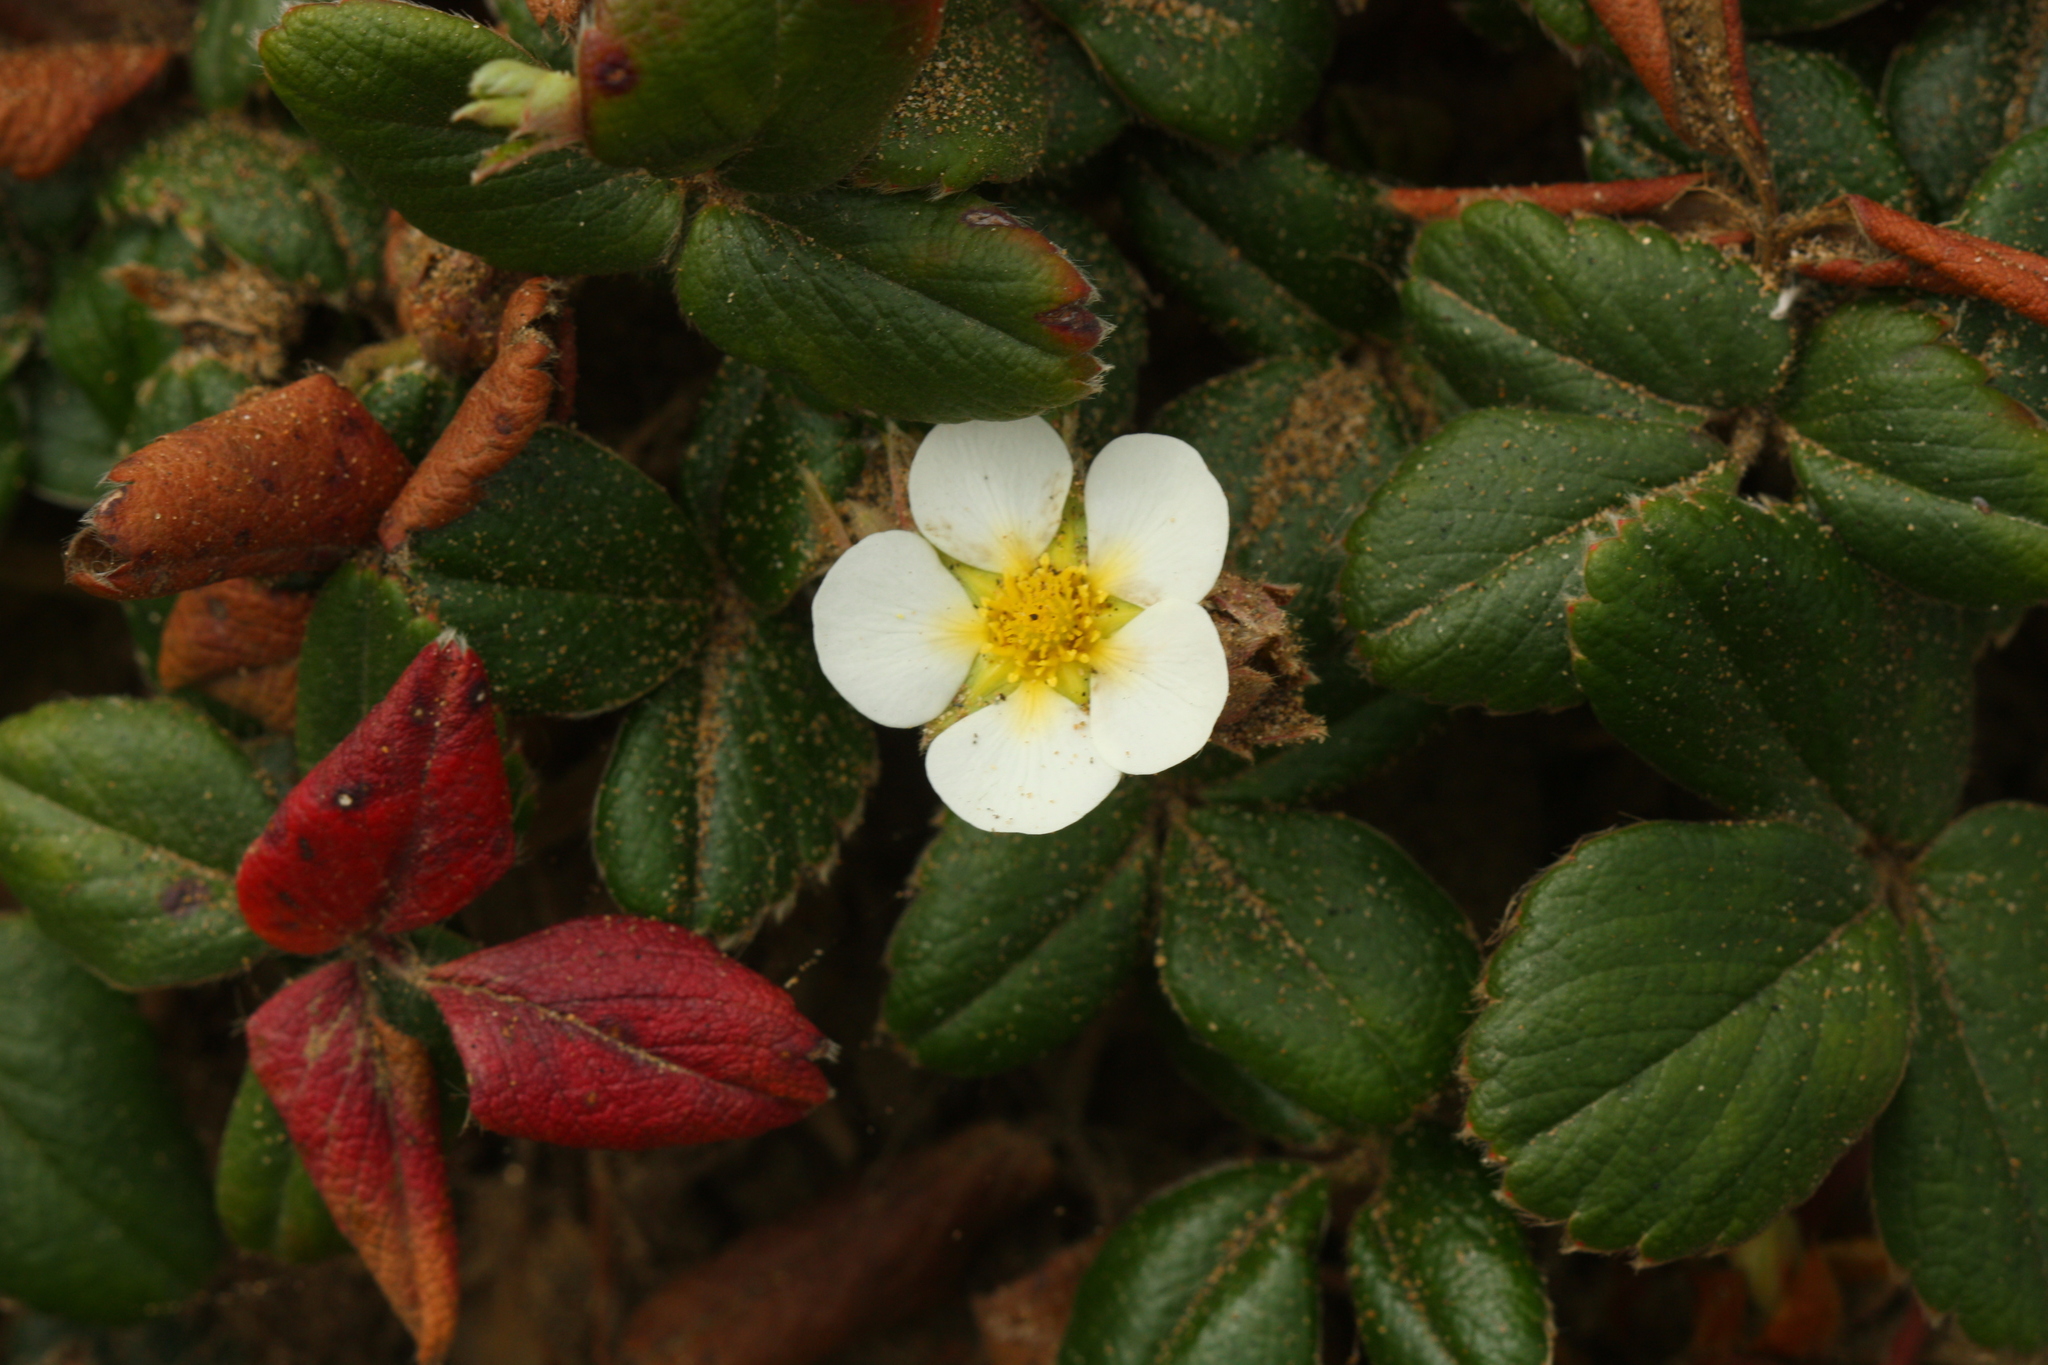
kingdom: Plantae
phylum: Tracheophyta
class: Magnoliopsida
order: Rosales
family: Rosaceae
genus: Fragaria
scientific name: Fragaria chiloensis
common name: Beach strawberry
